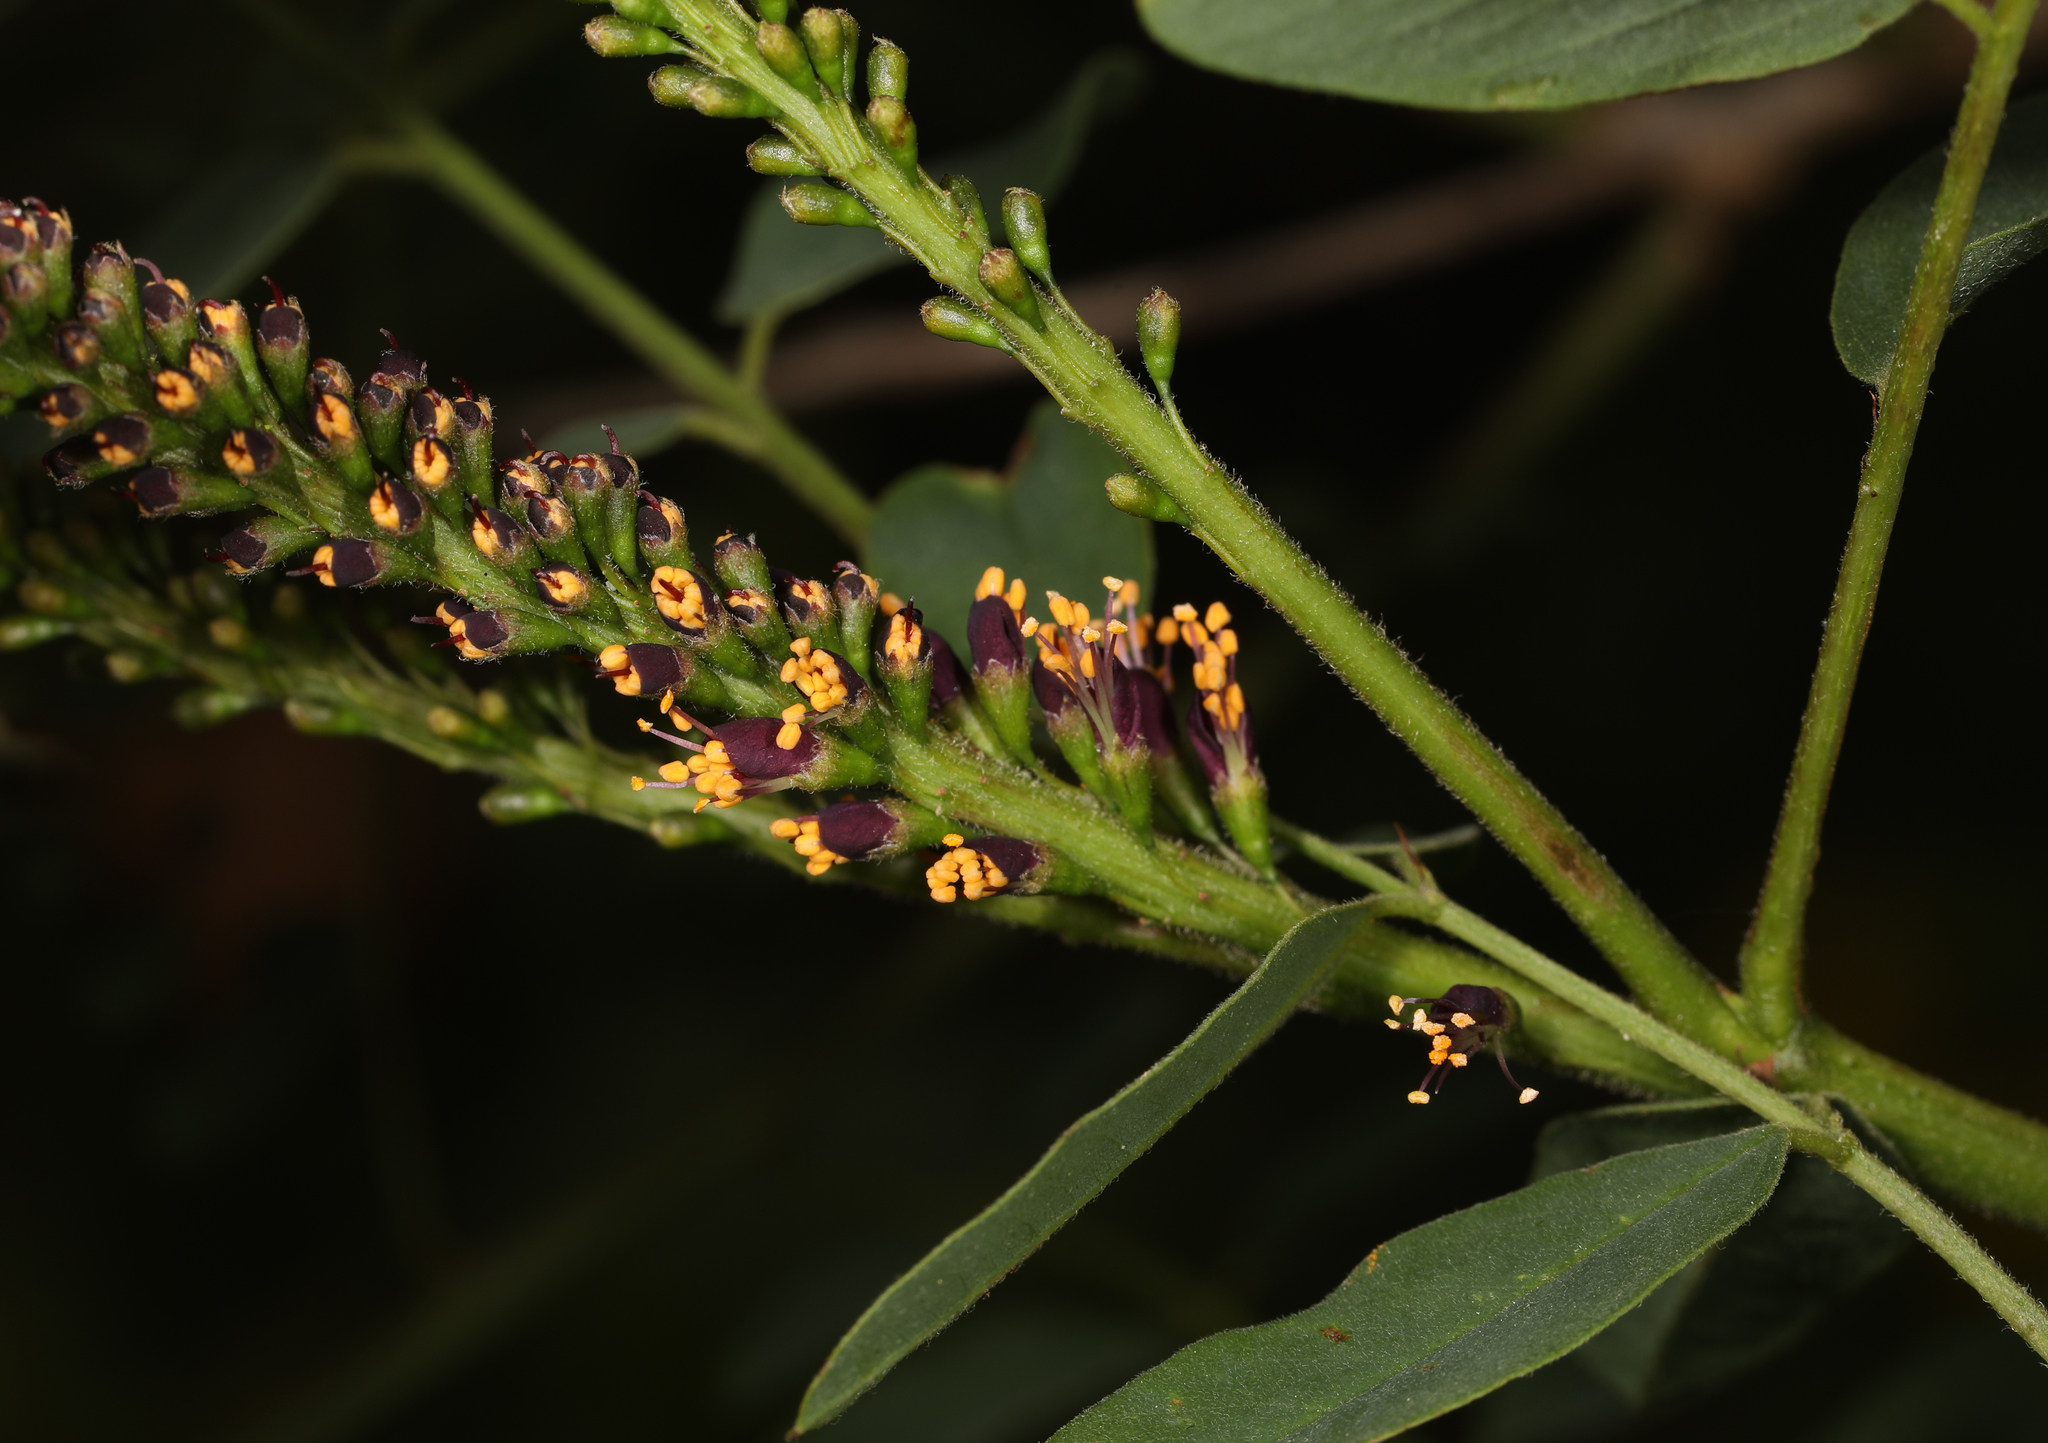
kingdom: Plantae
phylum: Tracheophyta
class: Magnoliopsida
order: Fabales
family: Fabaceae
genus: Amorpha
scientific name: Amorpha fruticosa
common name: False indigo
